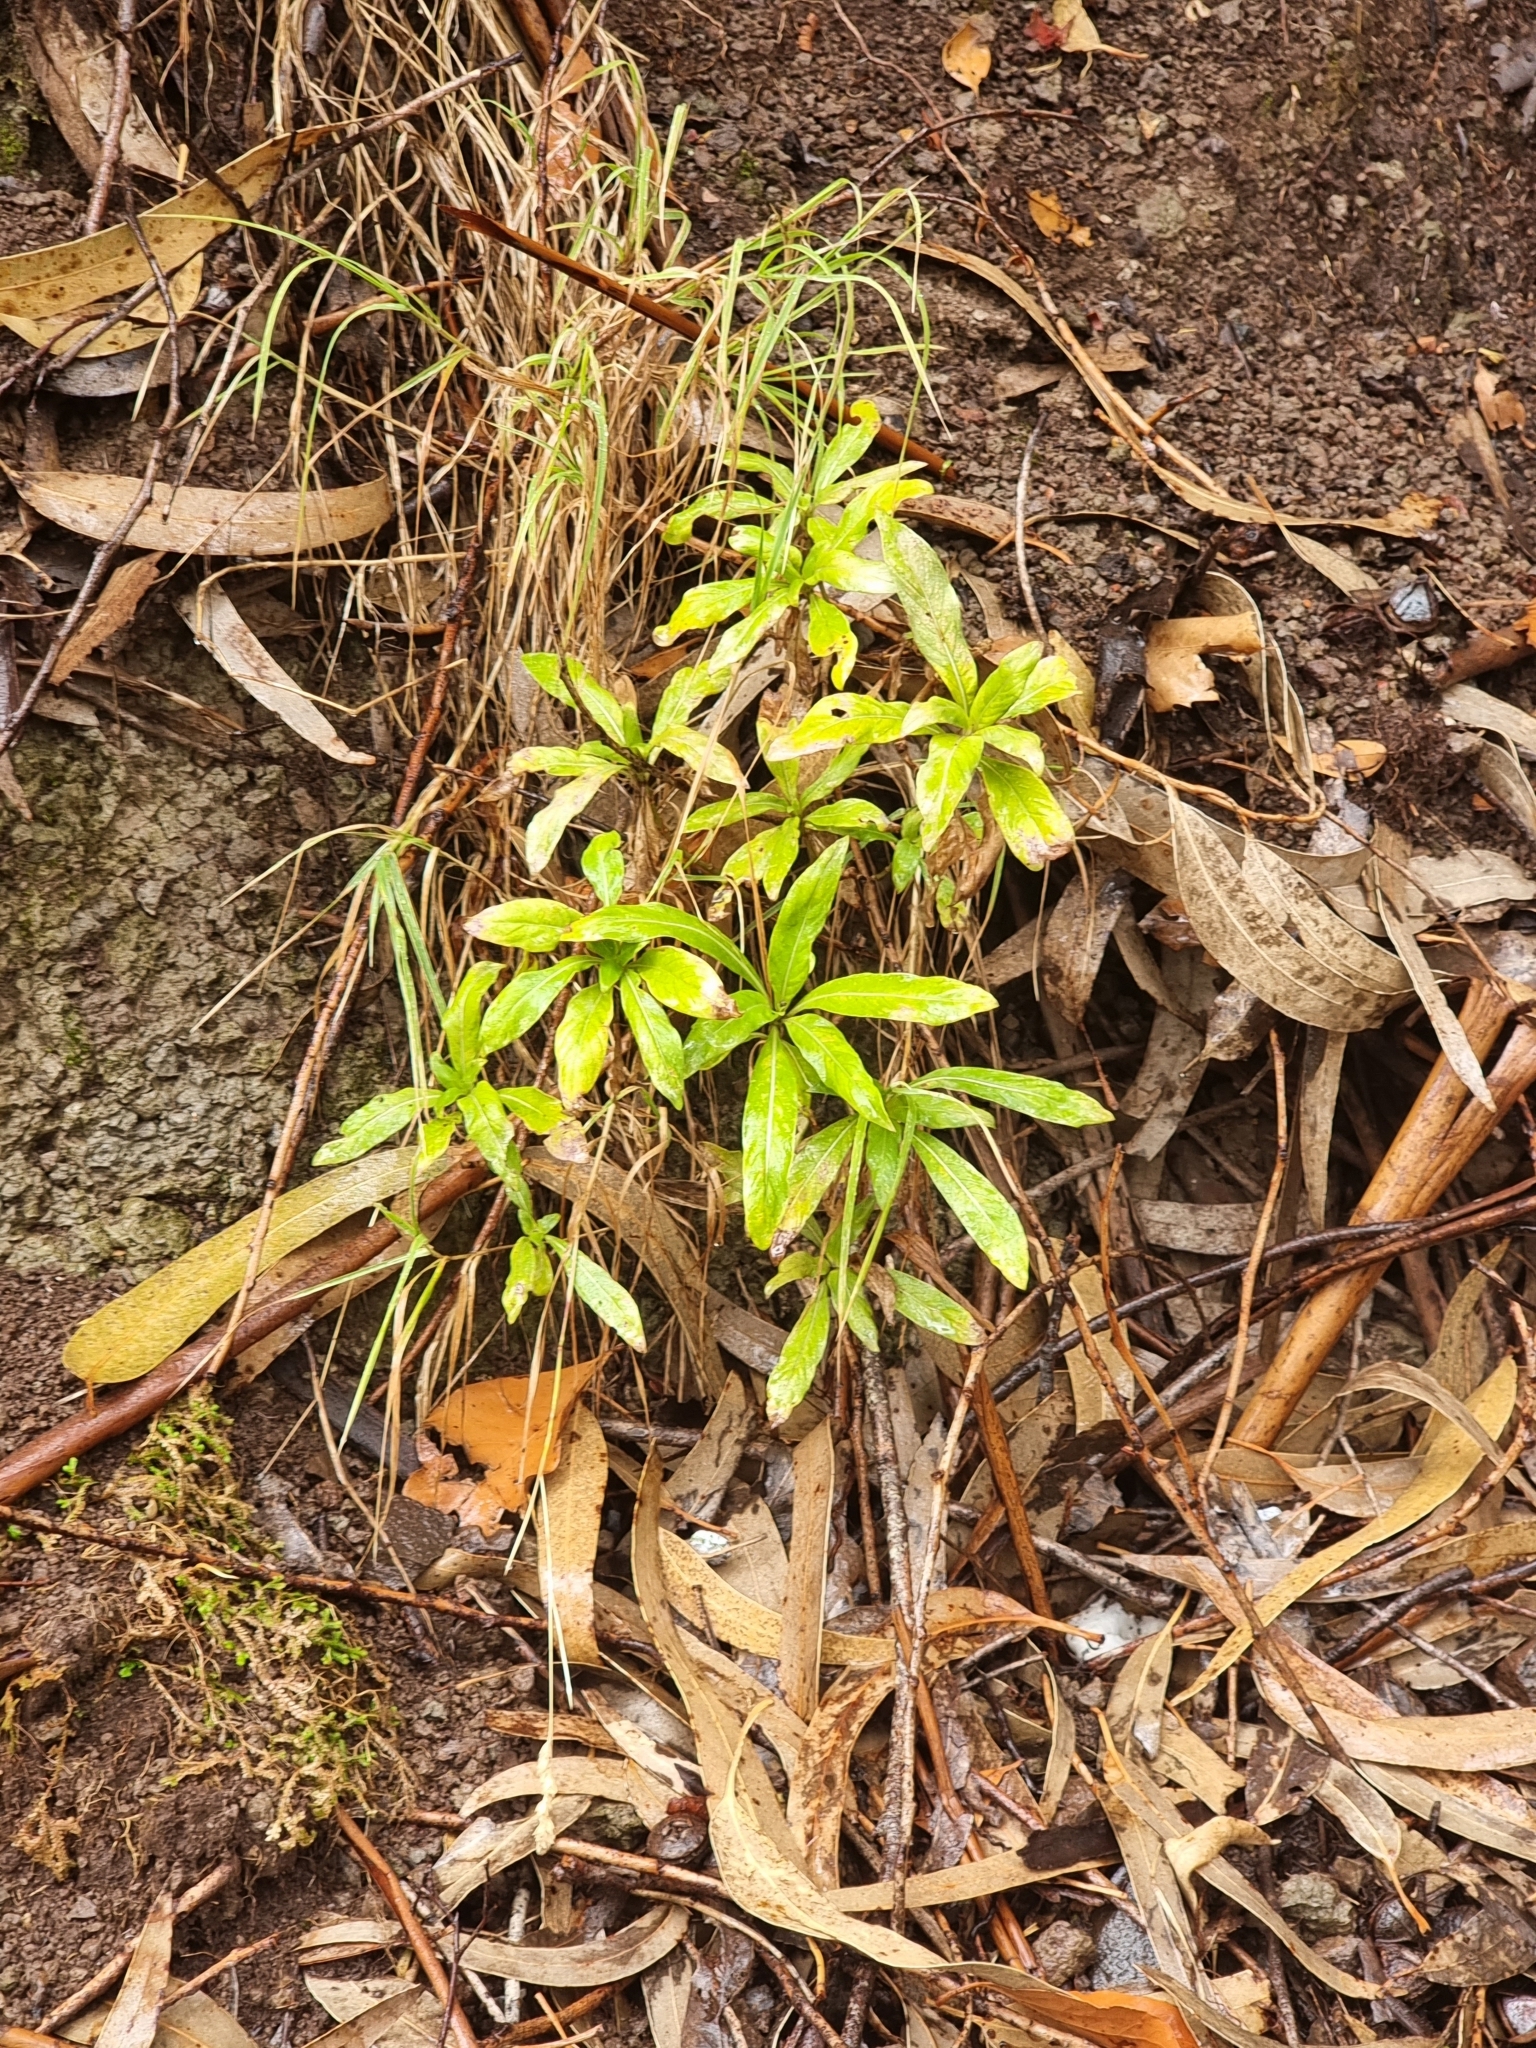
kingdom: Plantae
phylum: Tracheophyta
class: Magnoliopsida
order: Gentianales
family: Rubiaceae
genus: Phyllis
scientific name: Phyllis nobla
